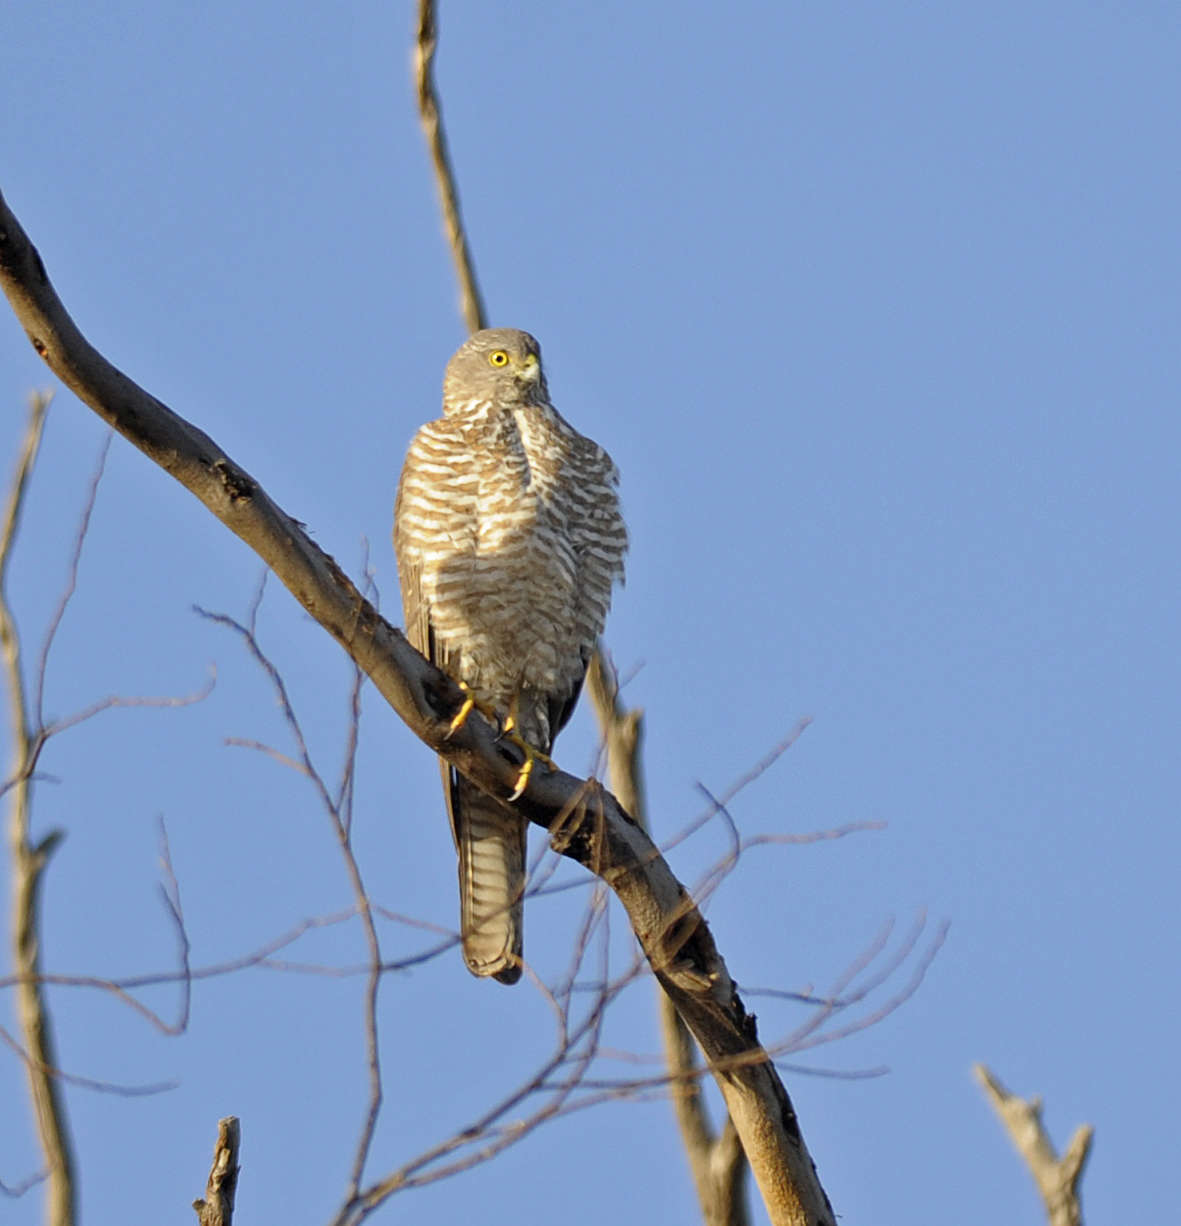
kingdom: Animalia
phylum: Chordata
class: Aves
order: Accipitriformes
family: Accipitridae
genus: Accipiter
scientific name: Accipiter cirrocephalus
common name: Collared sparrowhawk
